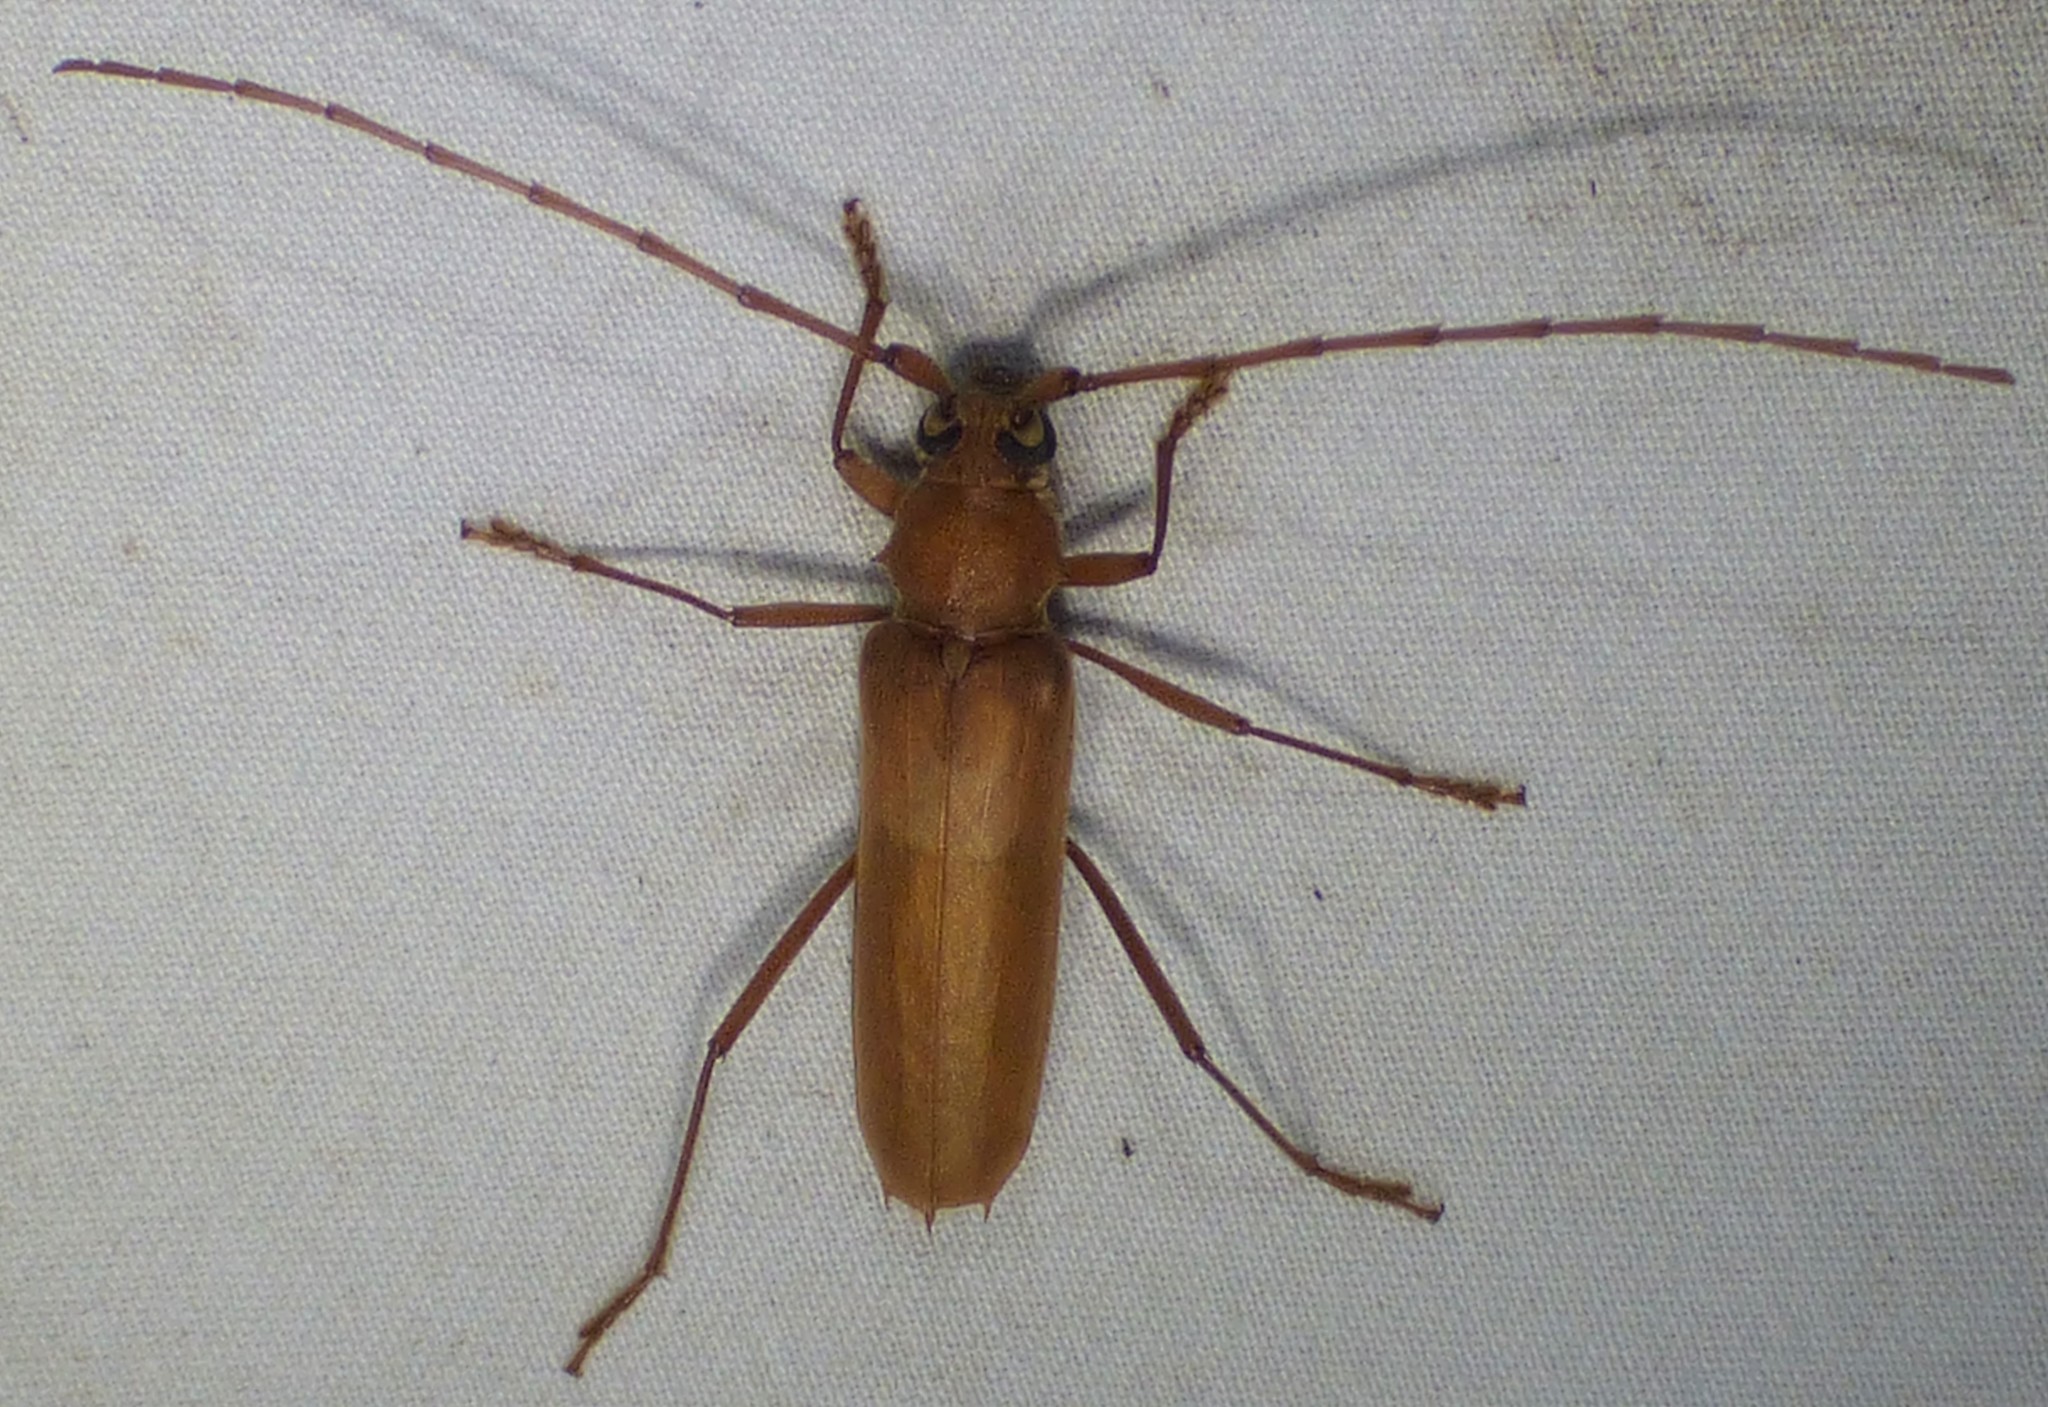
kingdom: Animalia
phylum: Arthropoda
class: Insecta
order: Coleoptera
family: Cerambycidae
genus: Knulliana
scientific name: Knulliana cincta
